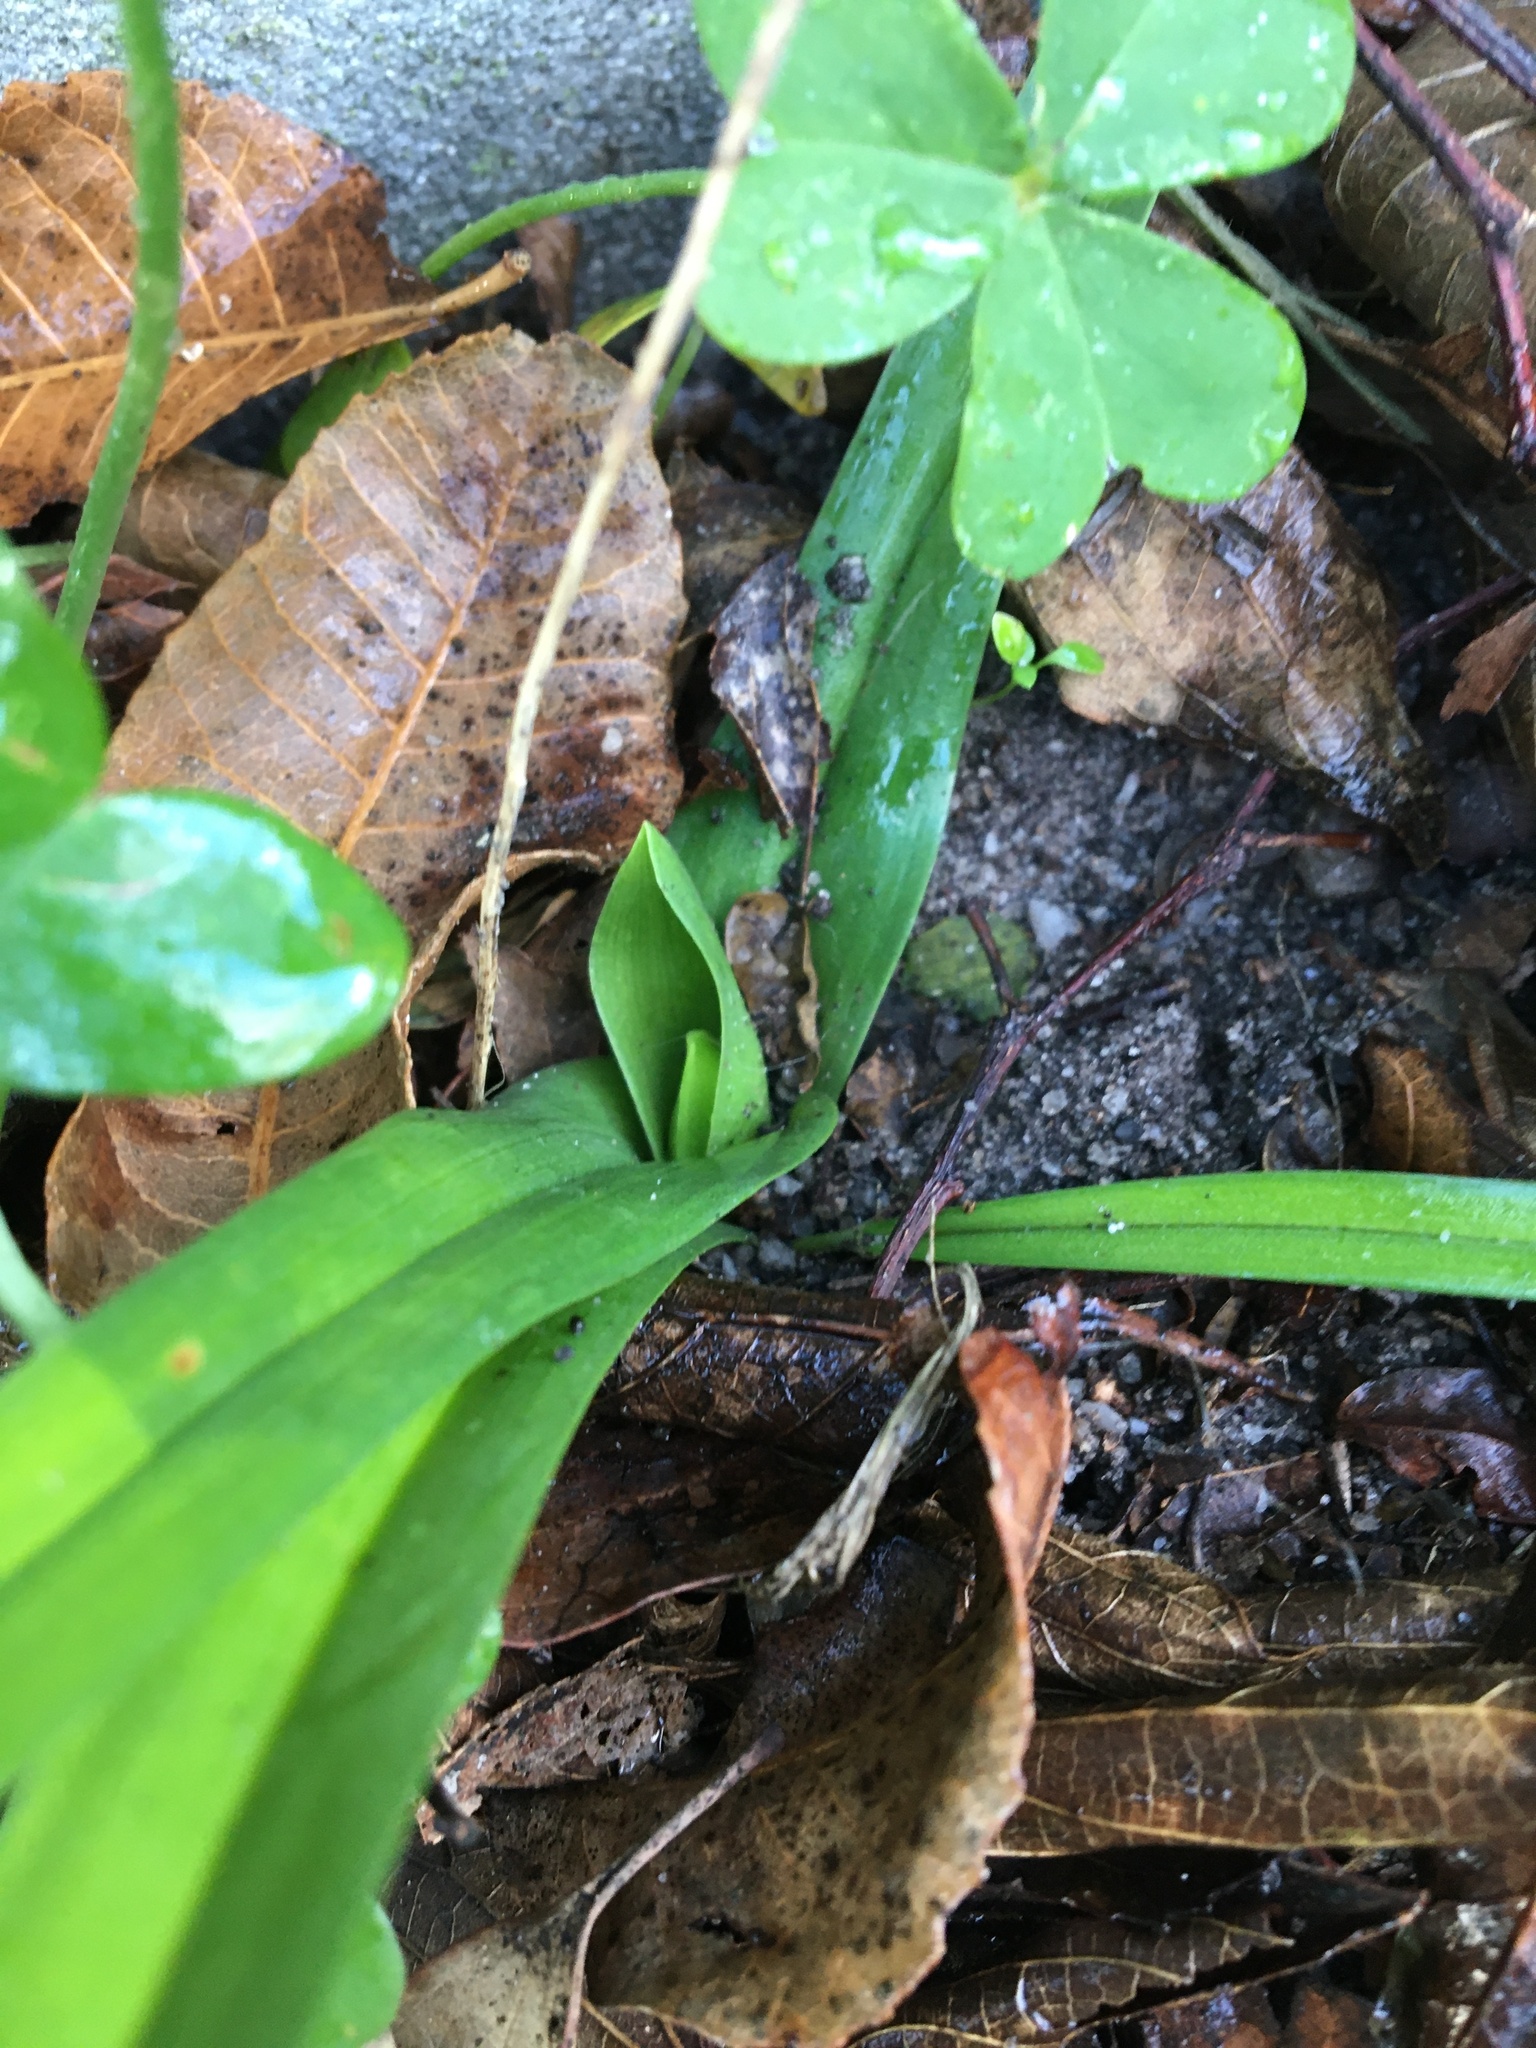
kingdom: Plantae
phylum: Tracheophyta
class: Liliopsida
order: Liliales
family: Colchicaceae
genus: Colchicum
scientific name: Colchicum eucomoides
